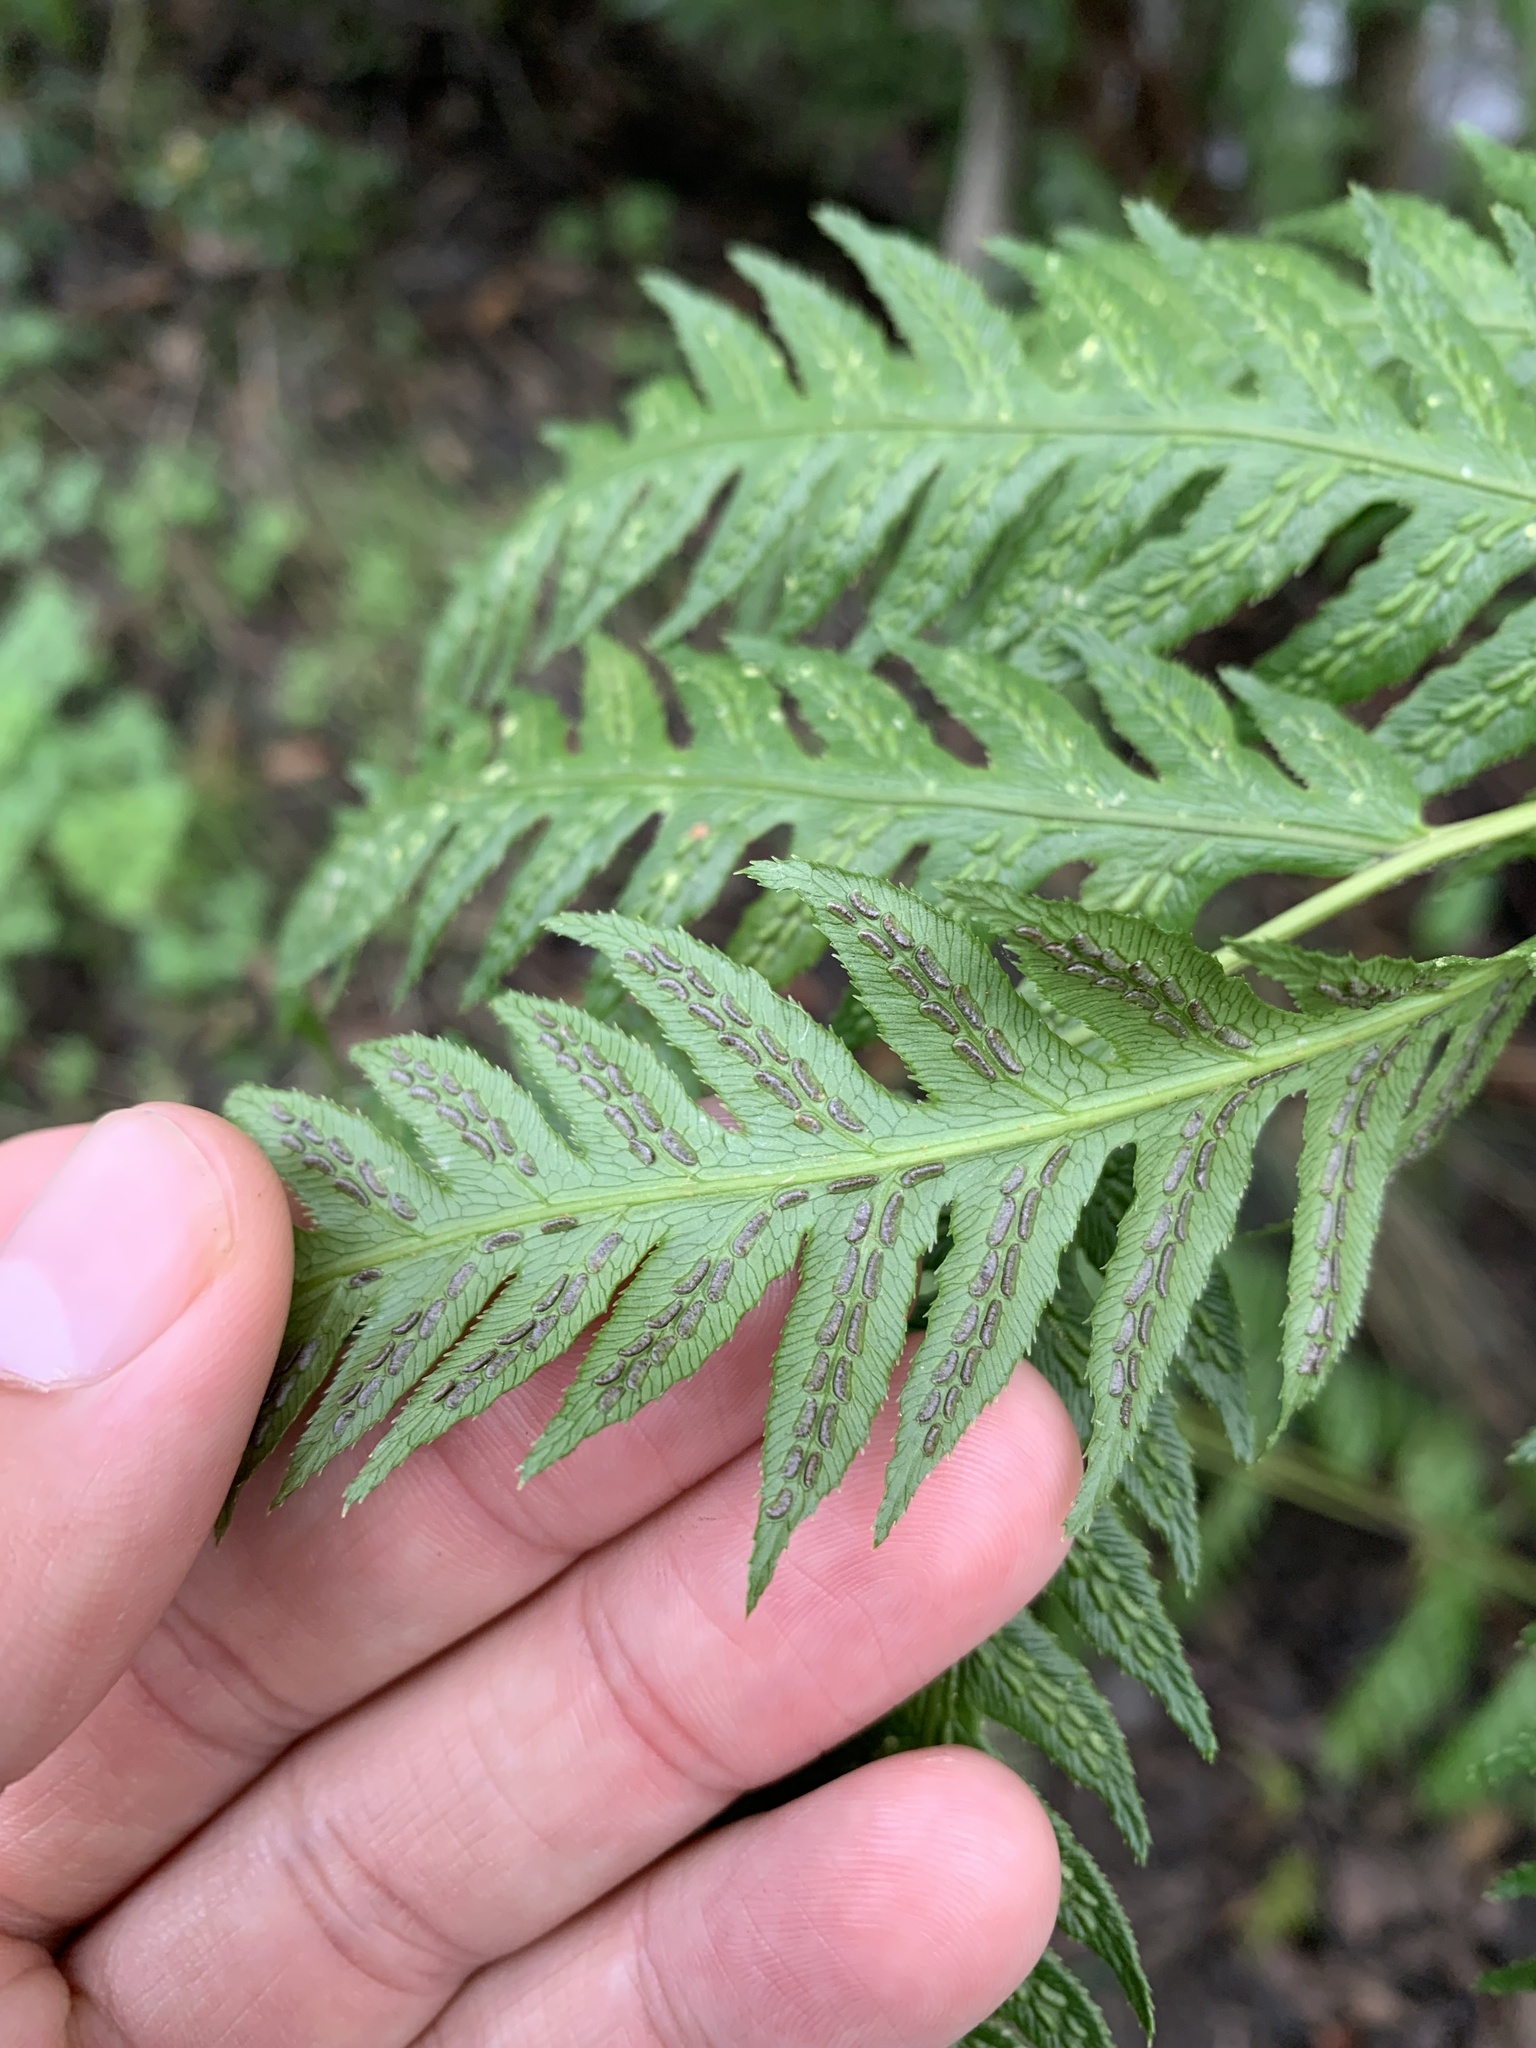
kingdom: Plantae
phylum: Tracheophyta
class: Polypodiopsida
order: Polypodiales
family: Blechnaceae
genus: Woodwardia
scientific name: Woodwardia fimbriata
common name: Giant chain fern
